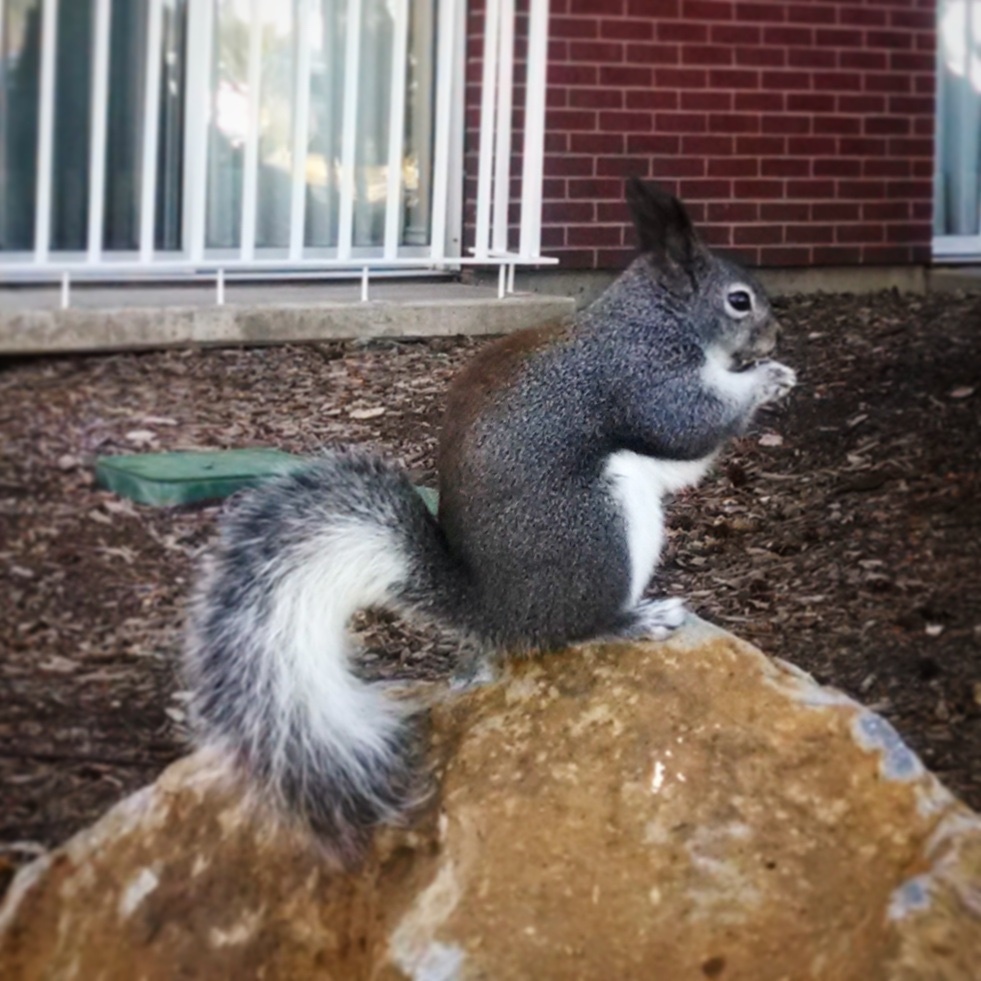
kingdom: Animalia
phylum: Chordata
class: Mammalia
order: Rodentia
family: Sciuridae
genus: Sciurus
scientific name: Sciurus aberti
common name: Abert's squirrel
